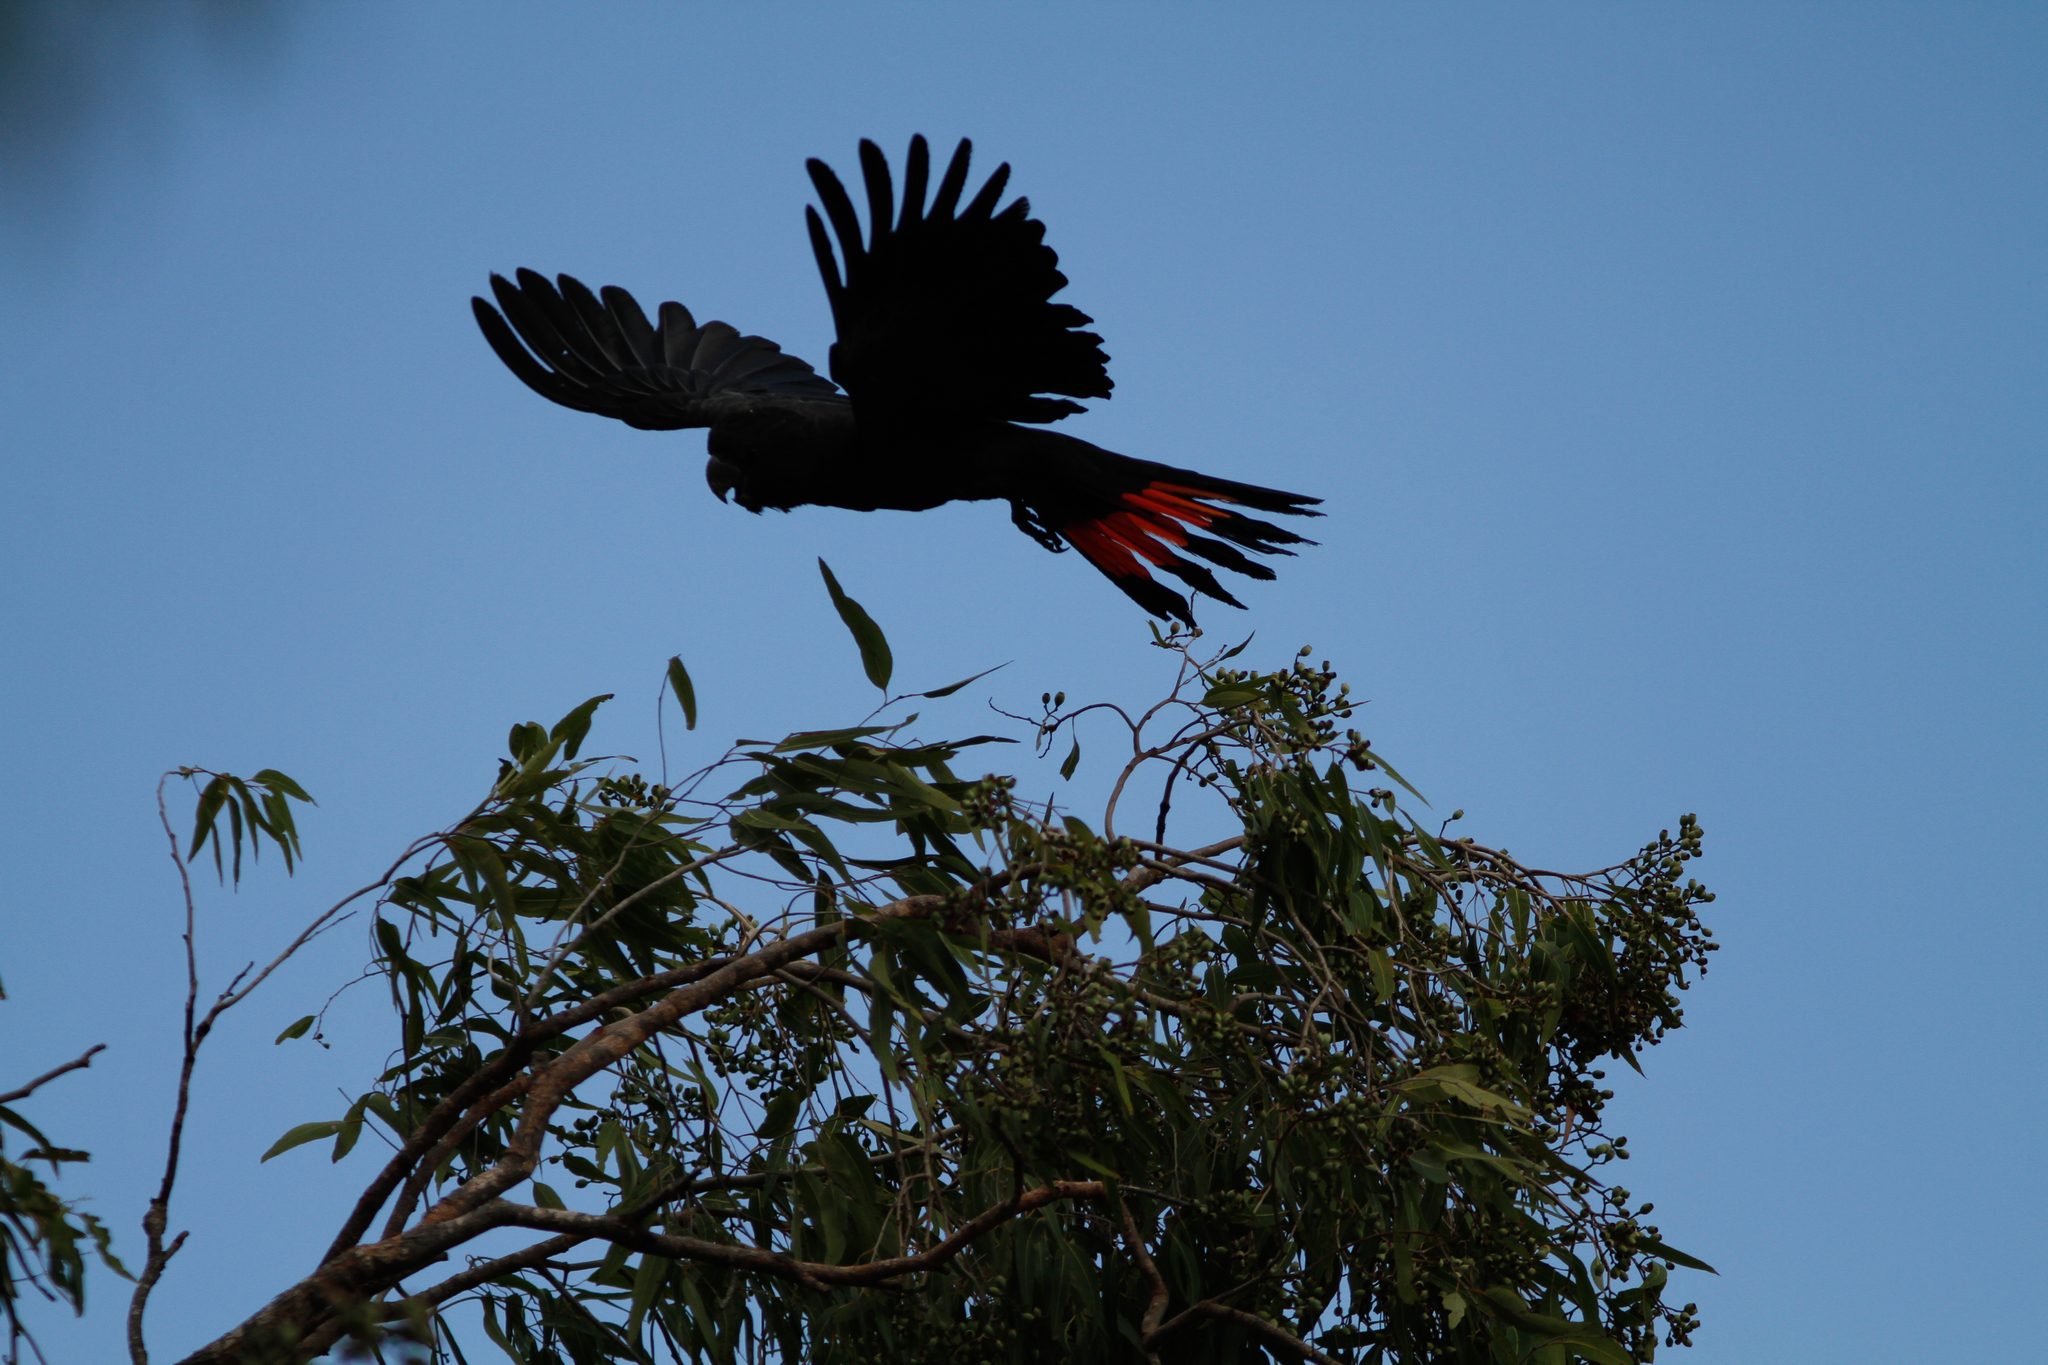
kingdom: Animalia
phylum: Chordata
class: Aves
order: Psittaciformes
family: Psittacidae
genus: Calyptorhynchus
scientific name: Calyptorhynchus banksii
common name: Red-tailed black cockatoo
